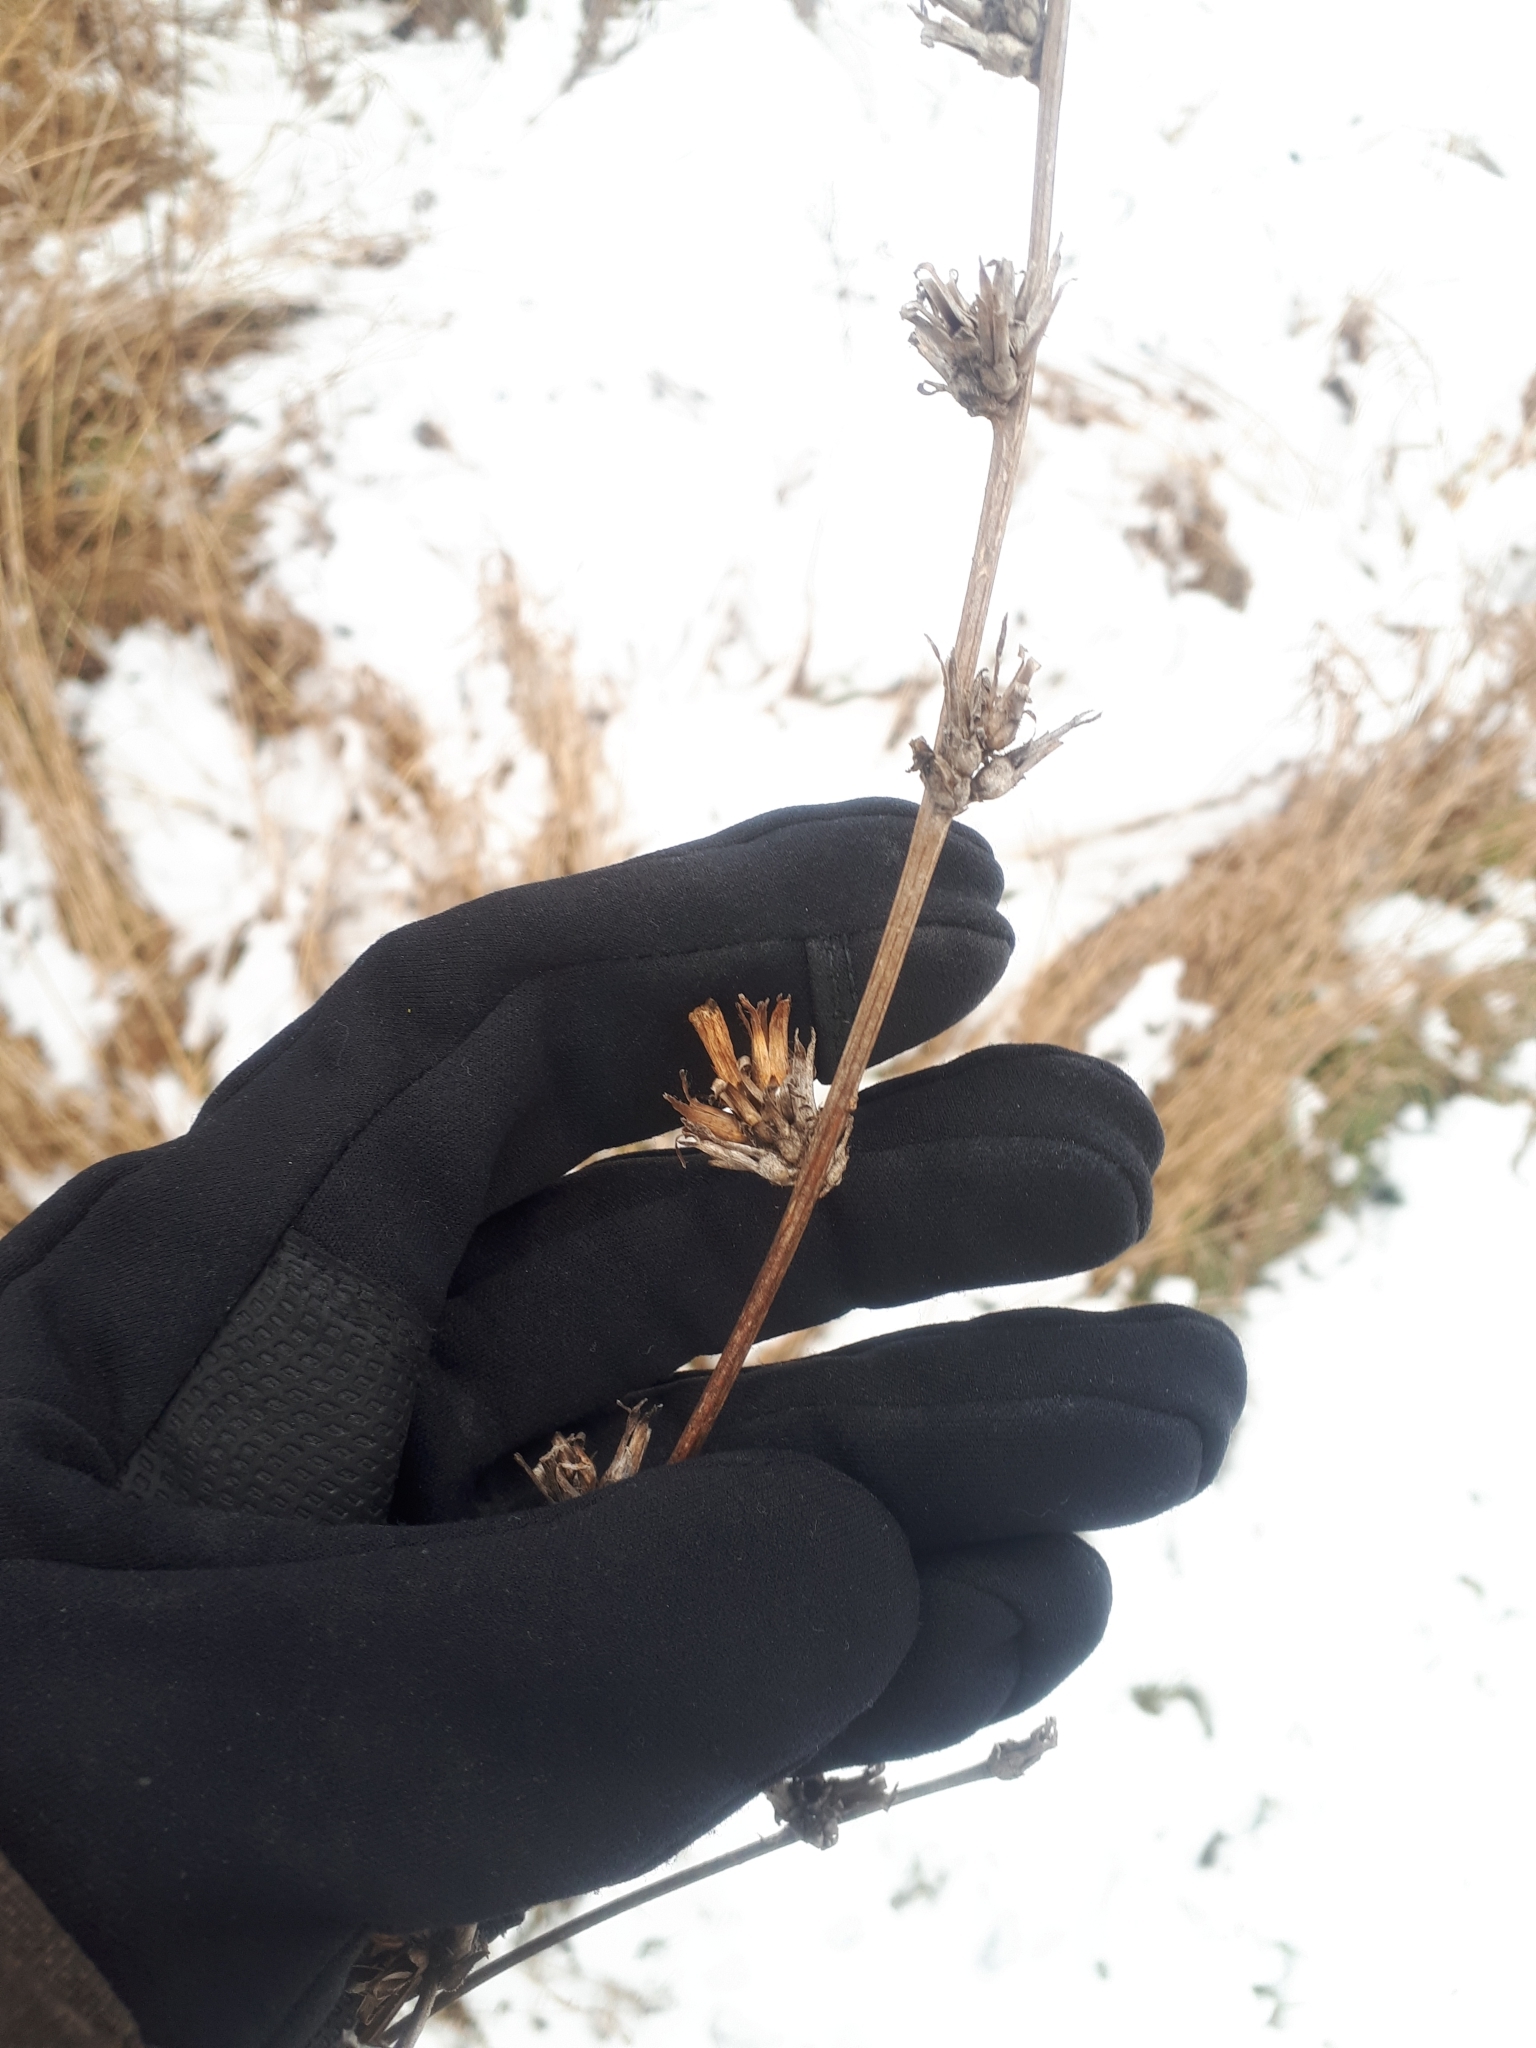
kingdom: Plantae
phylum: Tracheophyta
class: Magnoliopsida
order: Asterales
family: Asteraceae
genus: Cichorium
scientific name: Cichorium intybus
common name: Chicory
